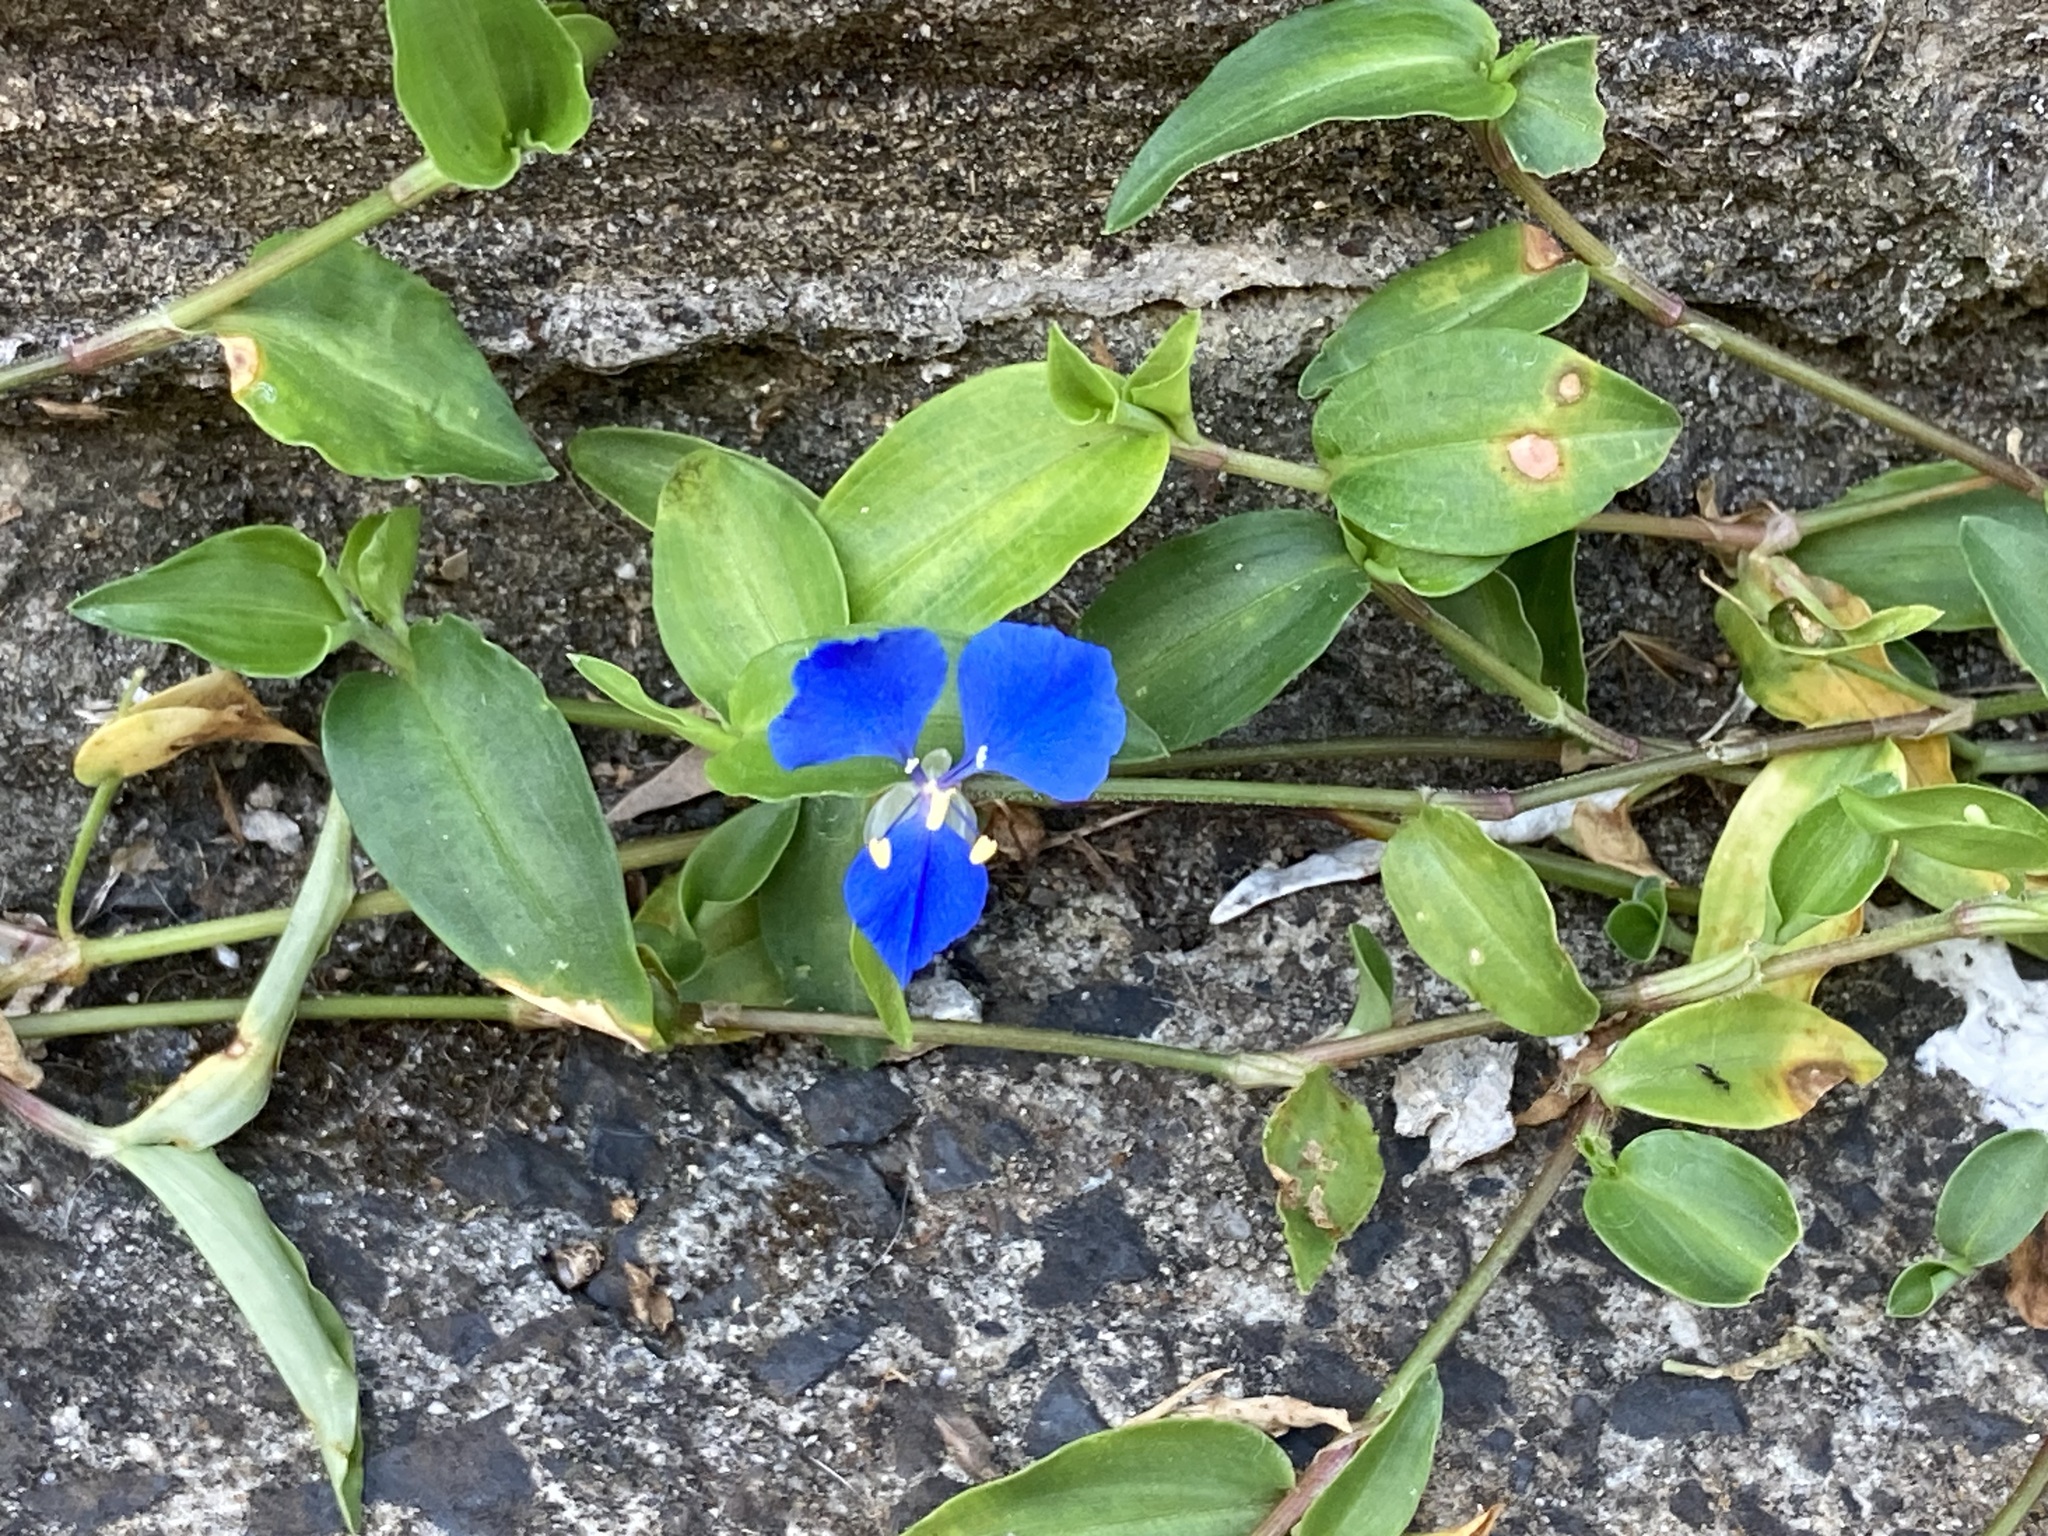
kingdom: Plantae
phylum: Tracheophyta
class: Liliopsida
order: Commelinales
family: Commelinaceae
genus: Commelina
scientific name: Commelina cyanea
